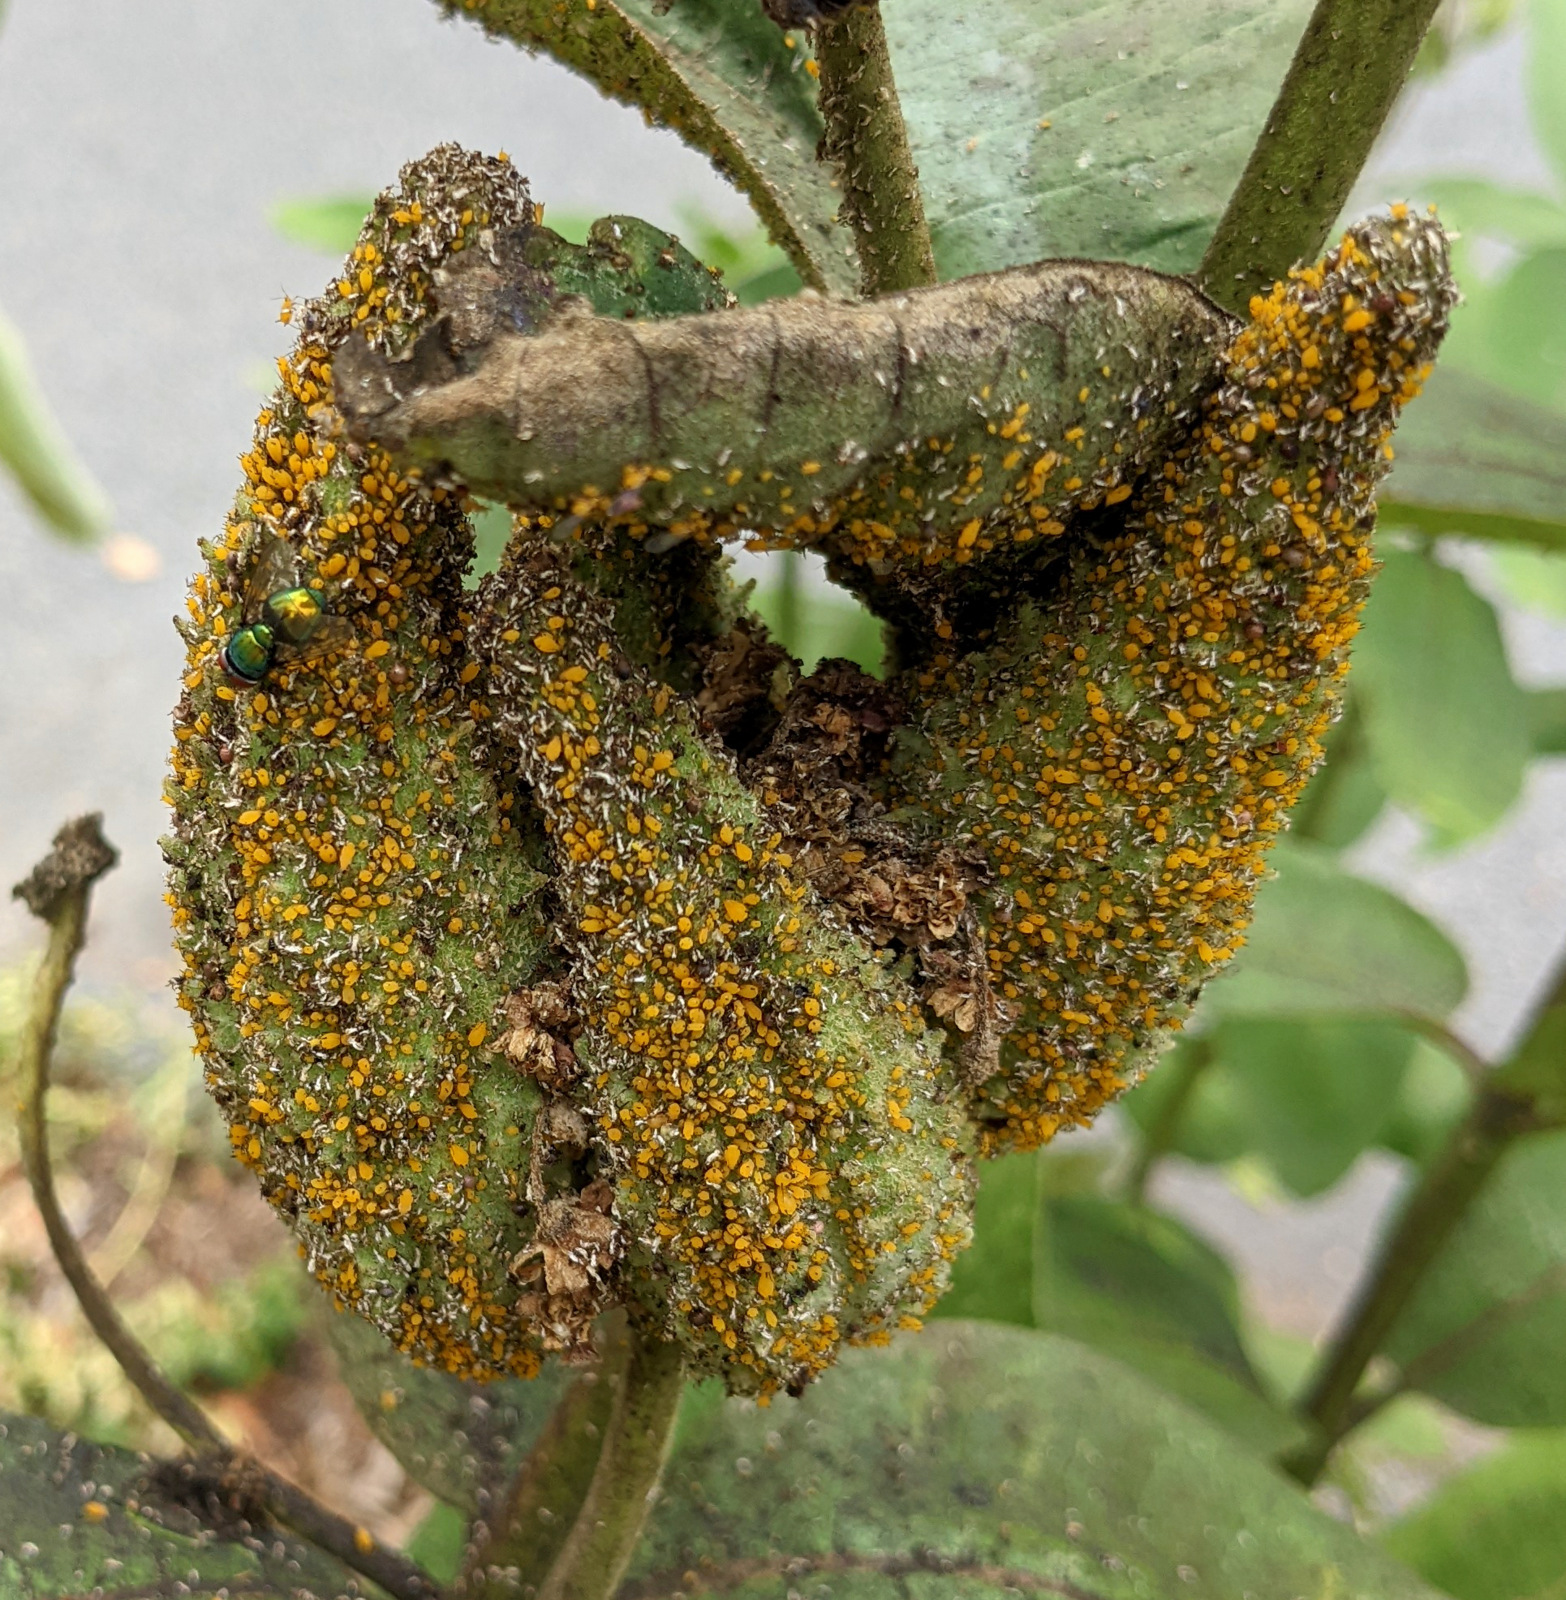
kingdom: Animalia
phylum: Arthropoda
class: Insecta
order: Hemiptera
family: Aphididae
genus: Aphis
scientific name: Aphis nerii
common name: Oleander aphid
